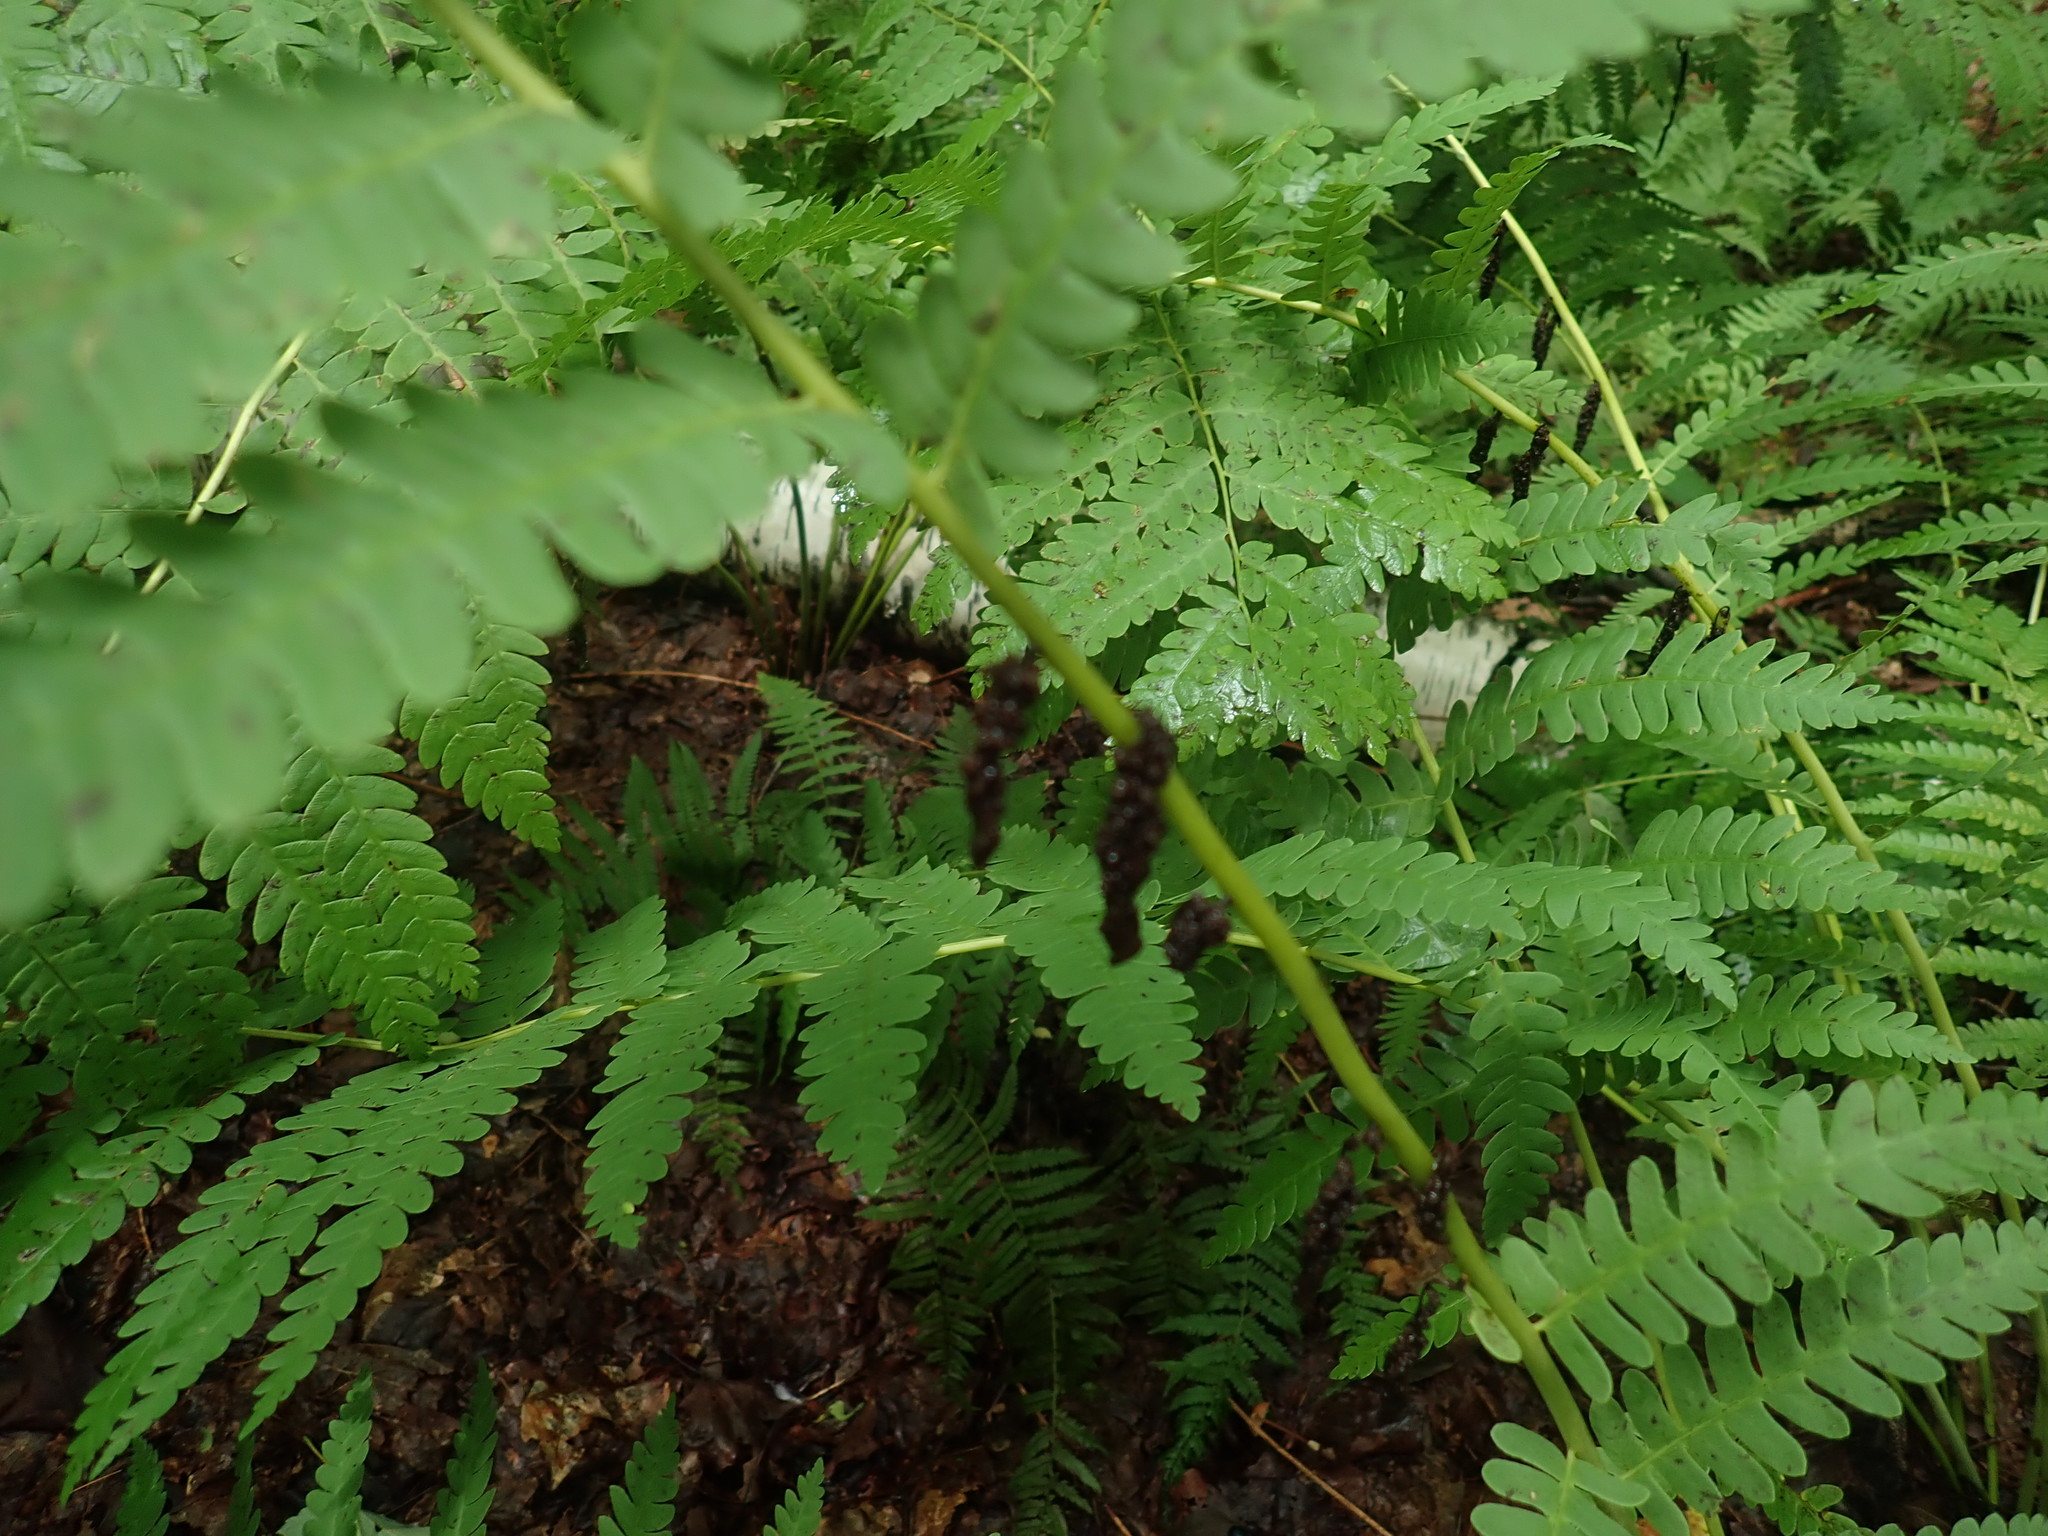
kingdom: Plantae
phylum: Tracheophyta
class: Polypodiopsida
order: Osmundales
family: Osmundaceae
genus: Claytosmunda
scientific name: Claytosmunda claytoniana
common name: Clayton's fern
